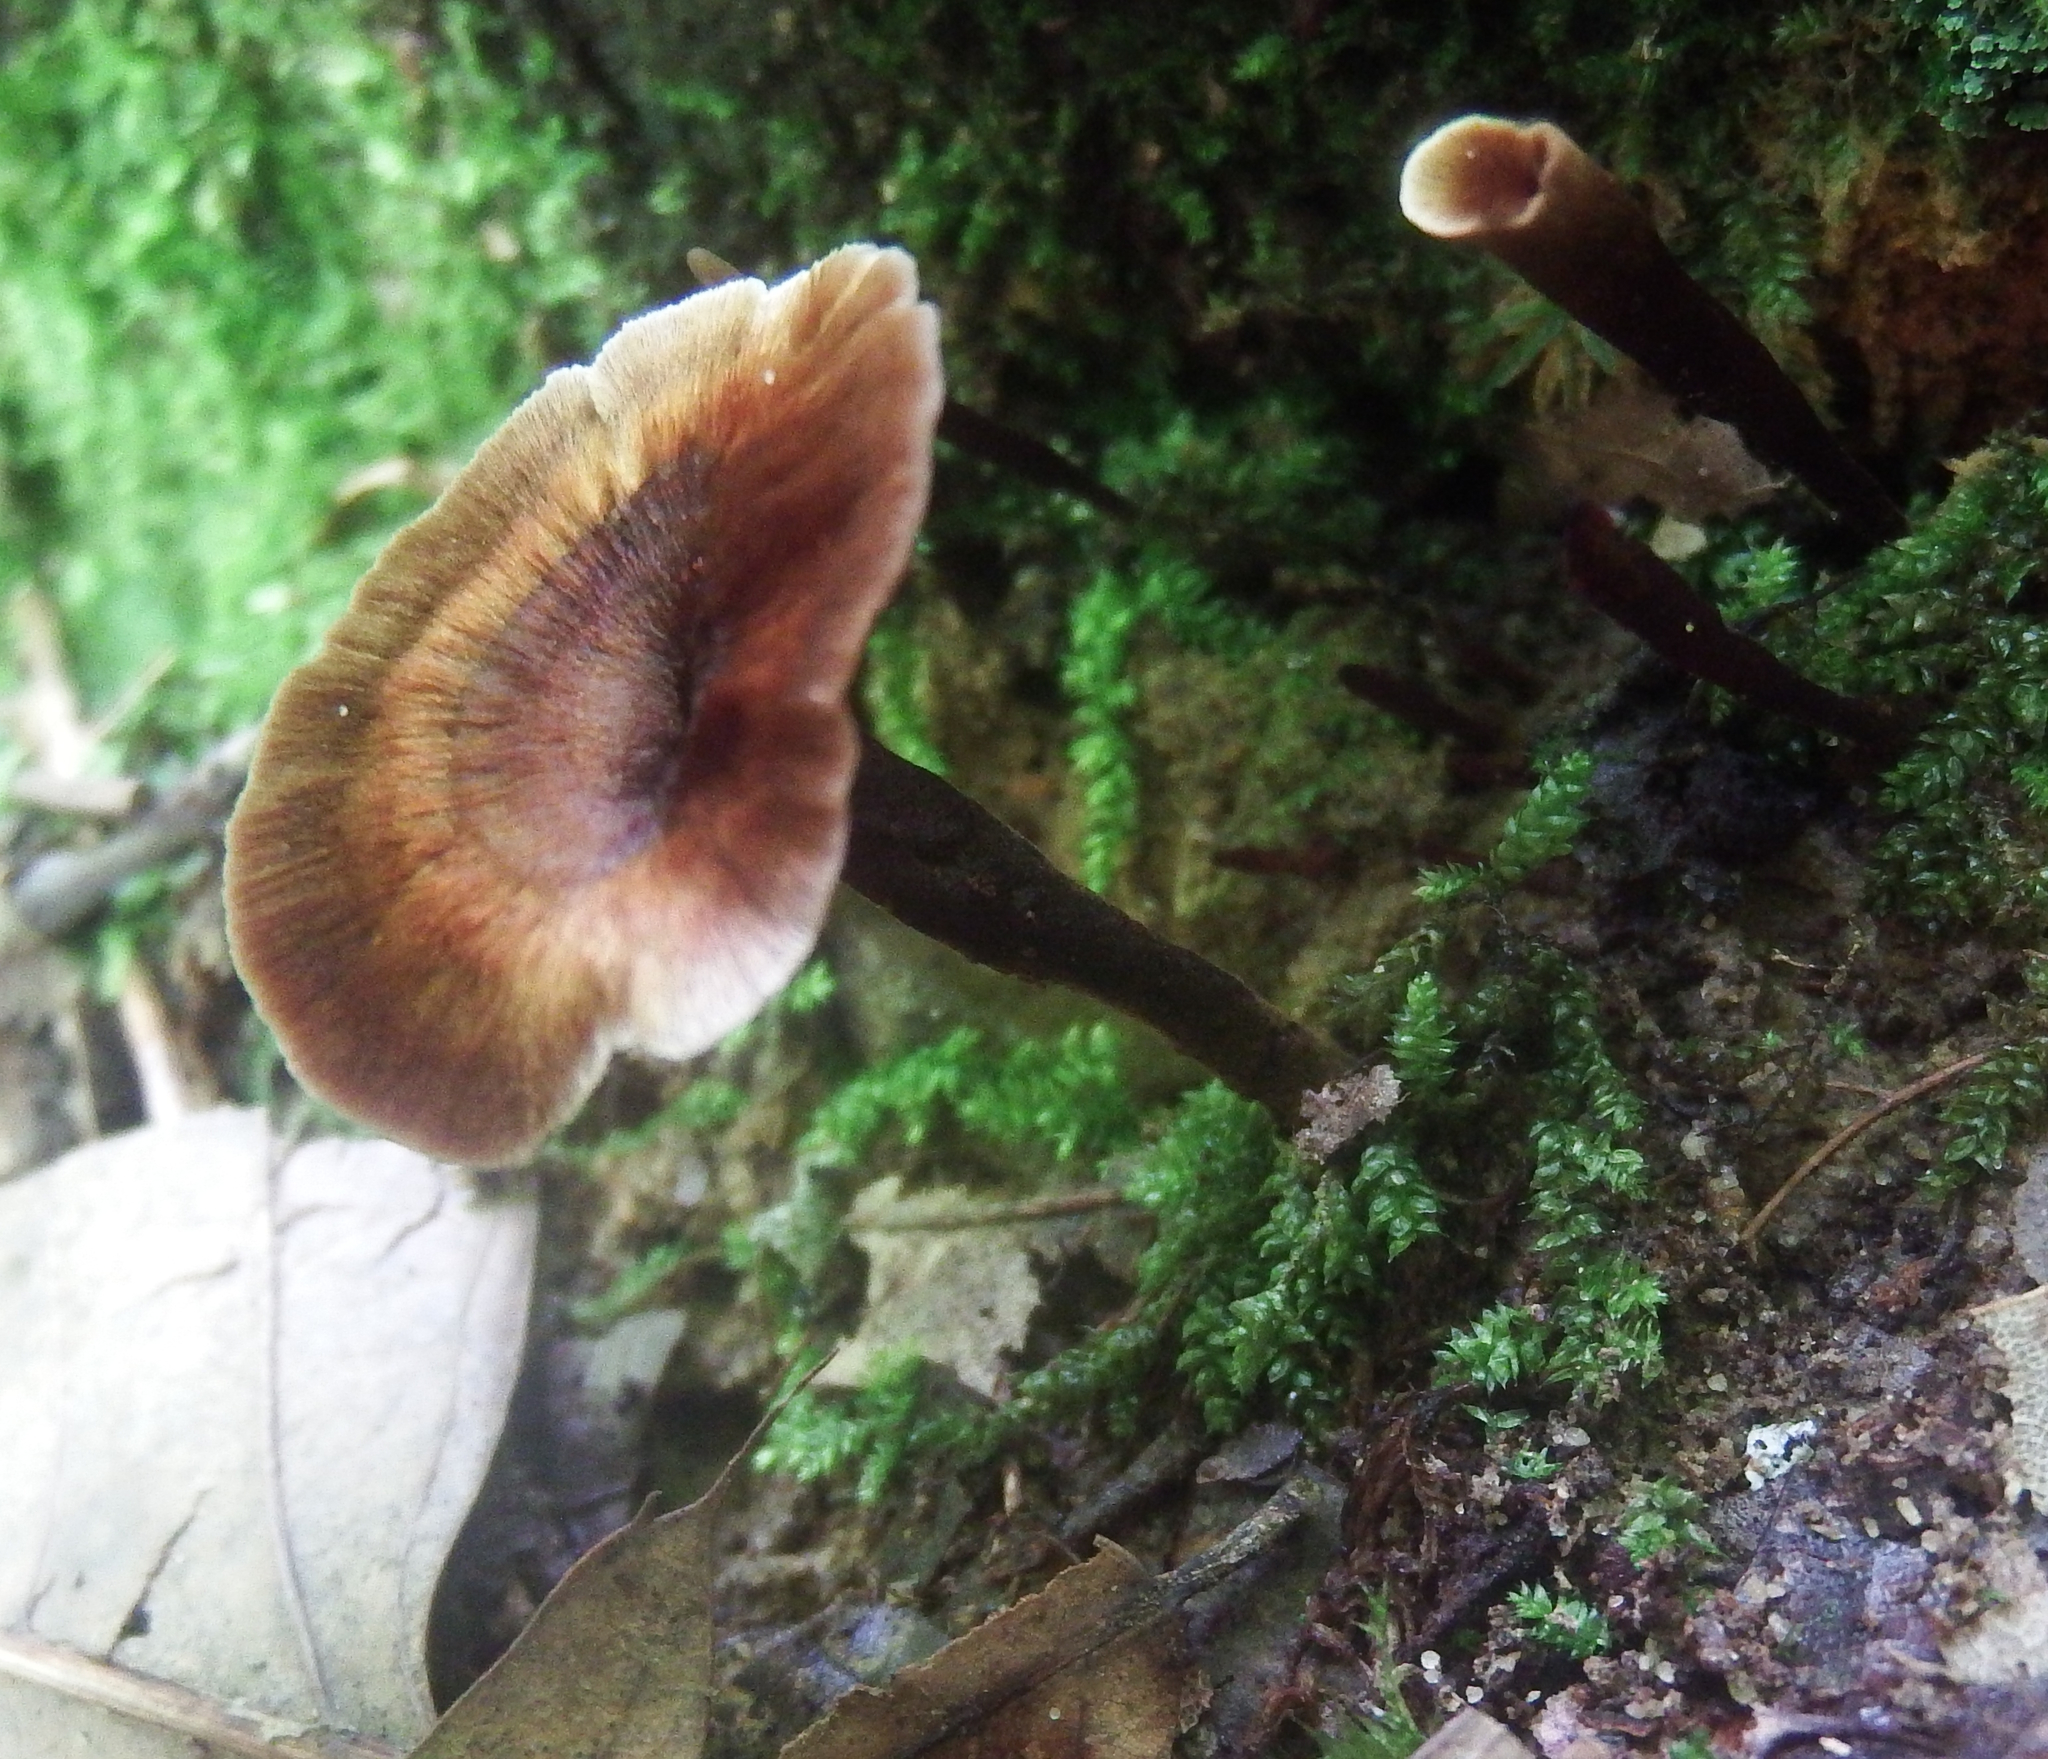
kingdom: Fungi
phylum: Basidiomycota
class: Agaricomycetes
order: Hymenochaetales
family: Hymenochaetaceae
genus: Coltricia
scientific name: Coltricia cinnamomea
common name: Shiny cinnamon polypore
